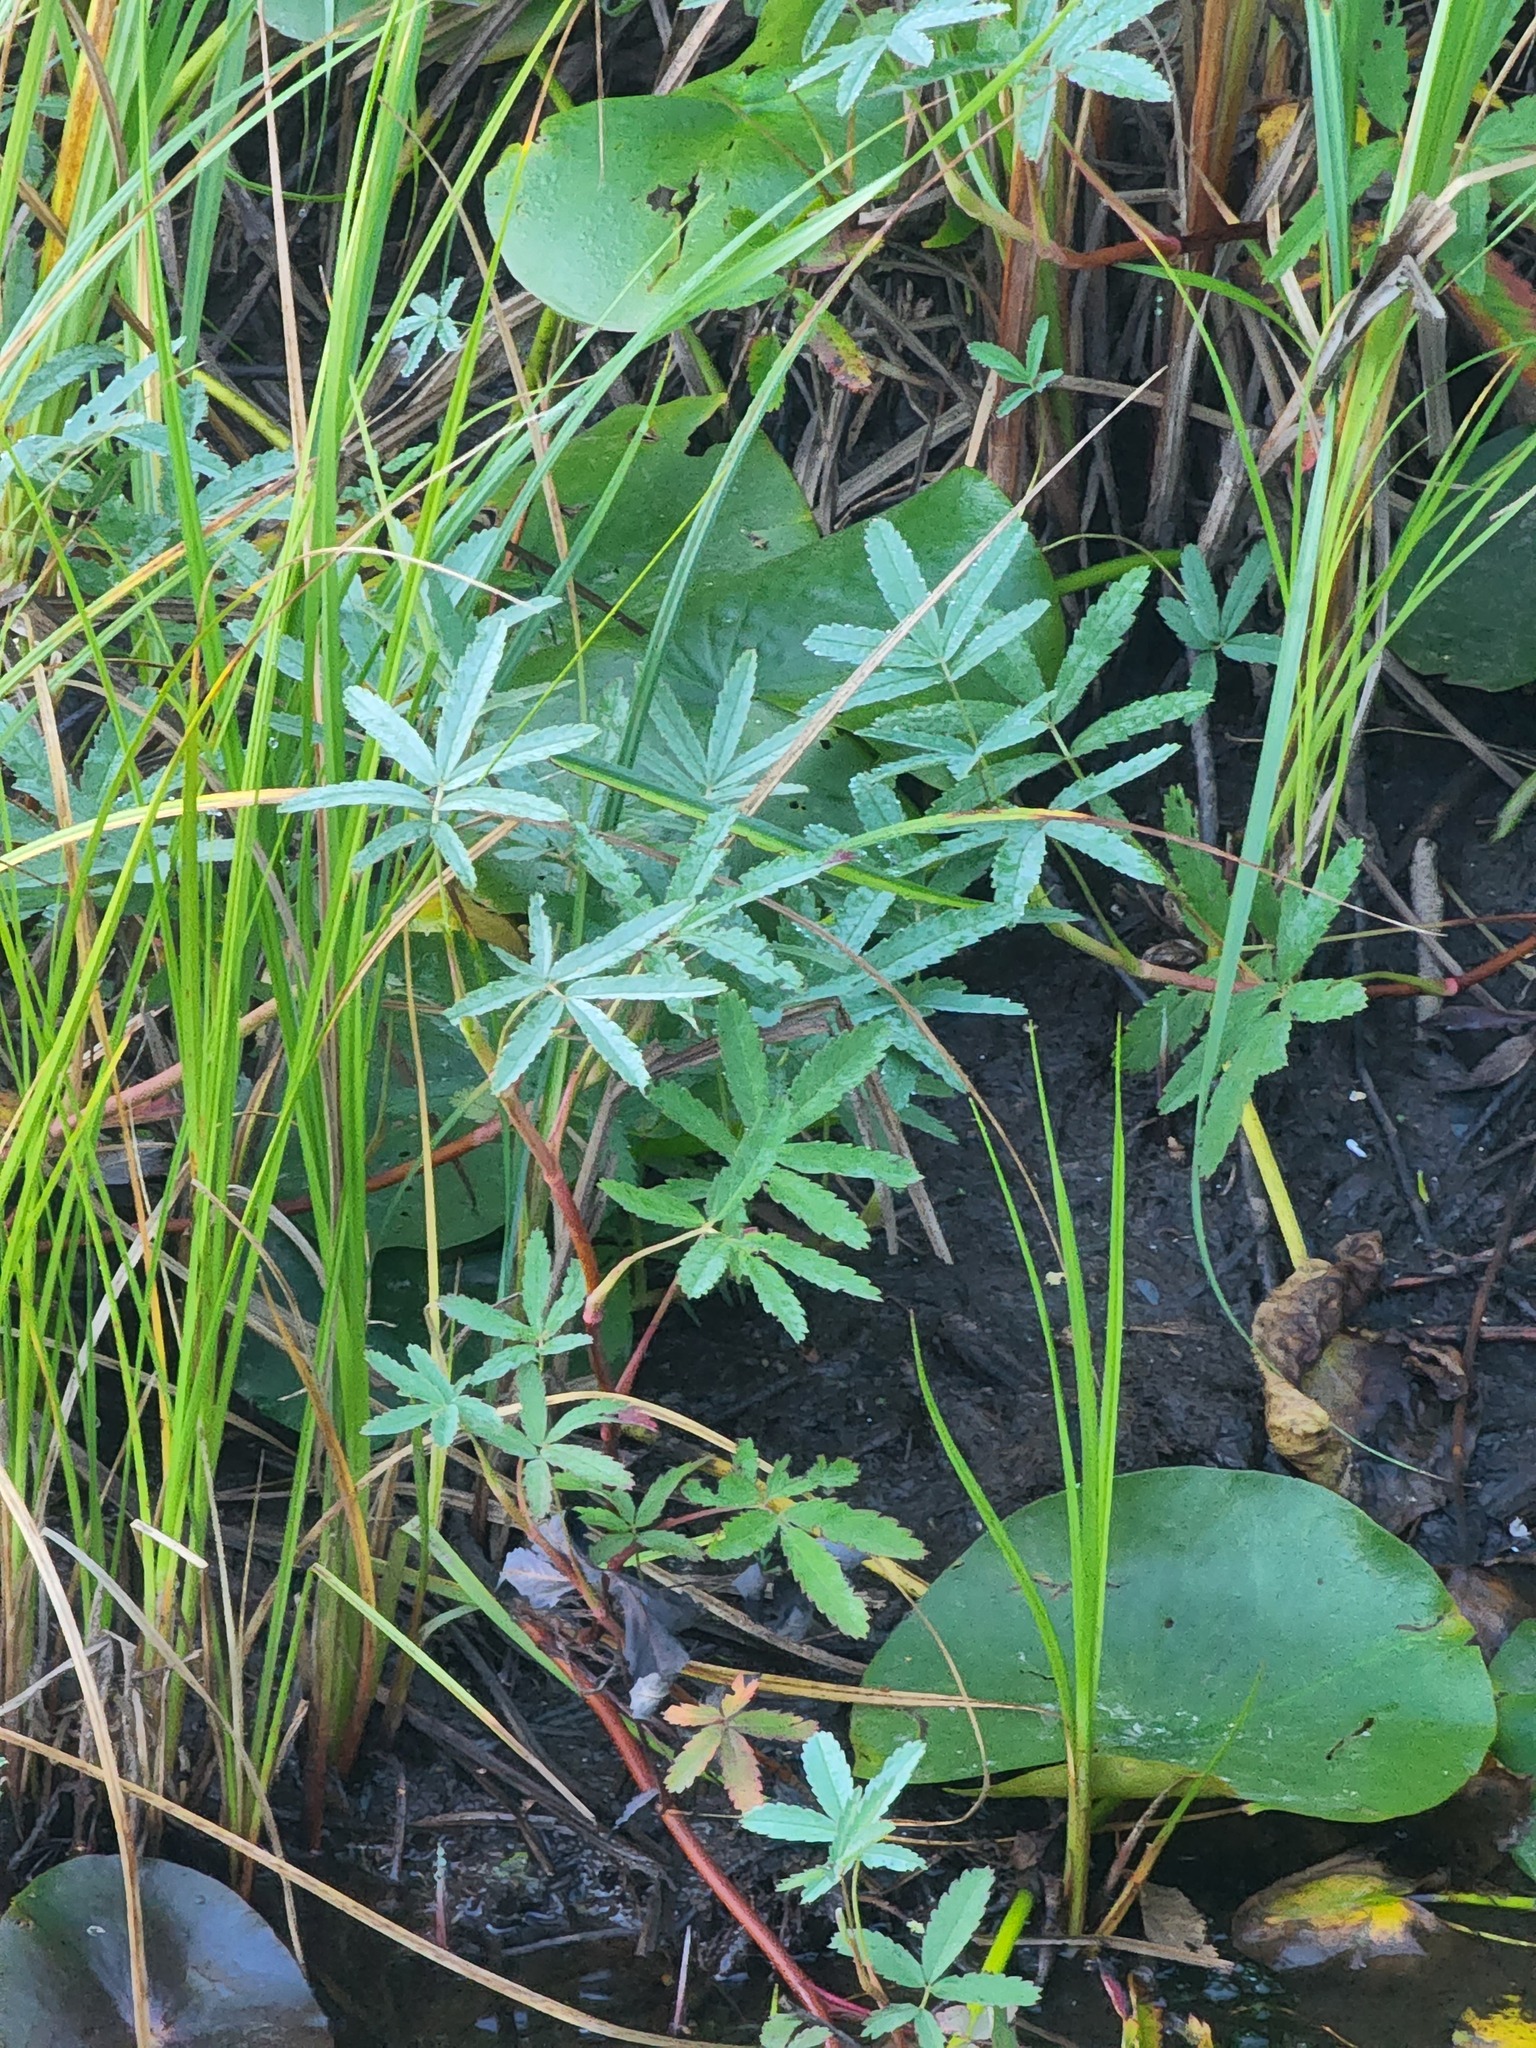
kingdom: Plantae
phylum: Tracheophyta
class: Magnoliopsida
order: Rosales
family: Rosaceae
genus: Comarum
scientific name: Comarum palustre
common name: Marsh cinquefoil
